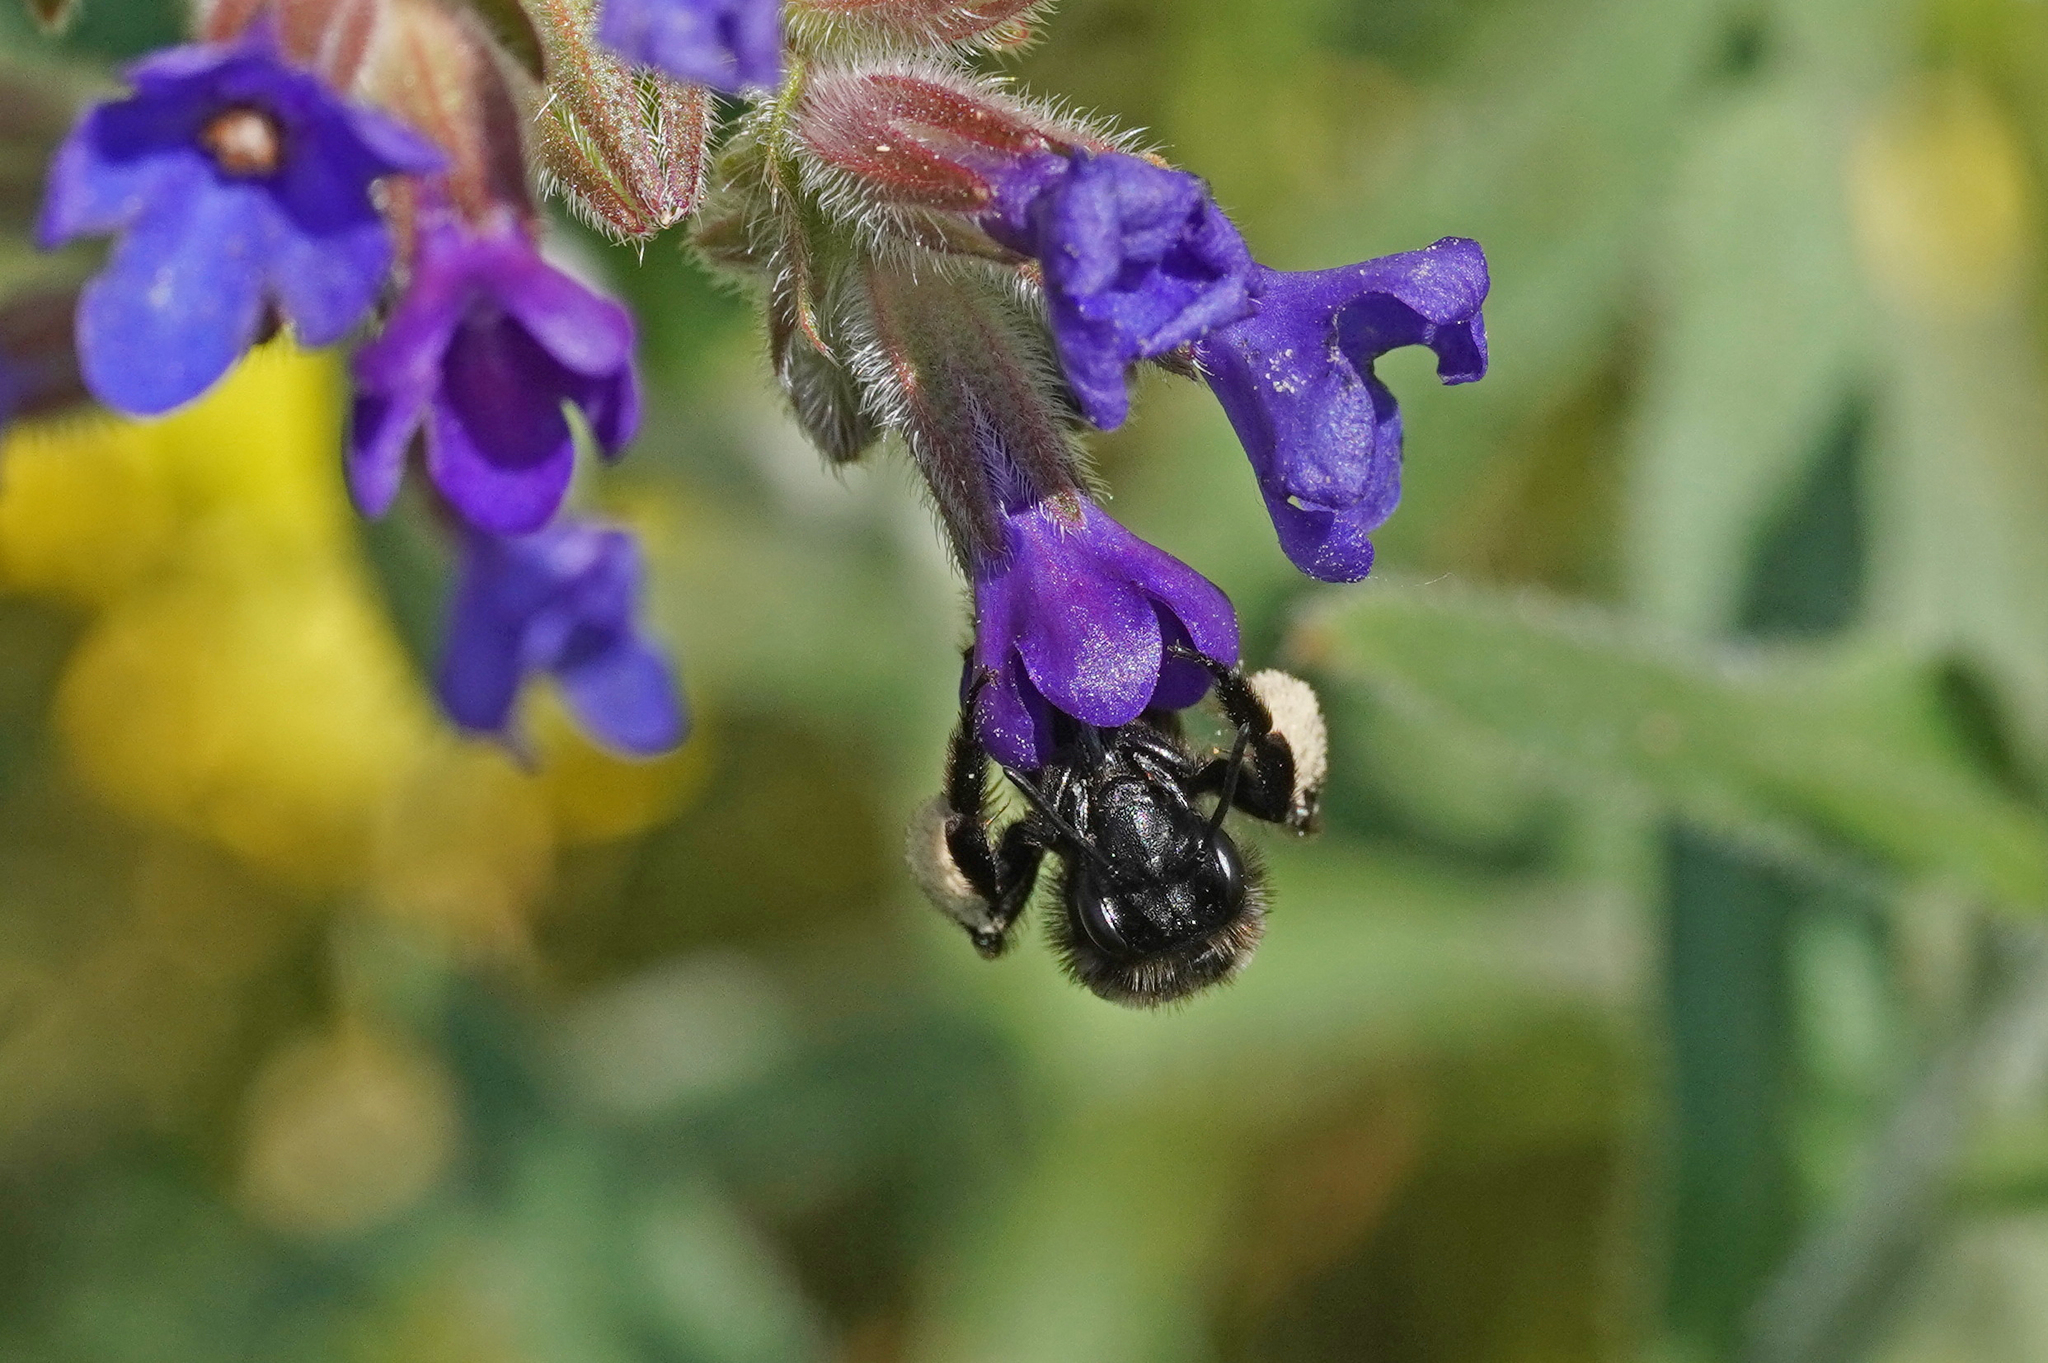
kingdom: Animalia
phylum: Arthropoda
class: Insecta
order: Hymenoptera
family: Andrenidae
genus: Andrena
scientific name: Andrena nasuta
